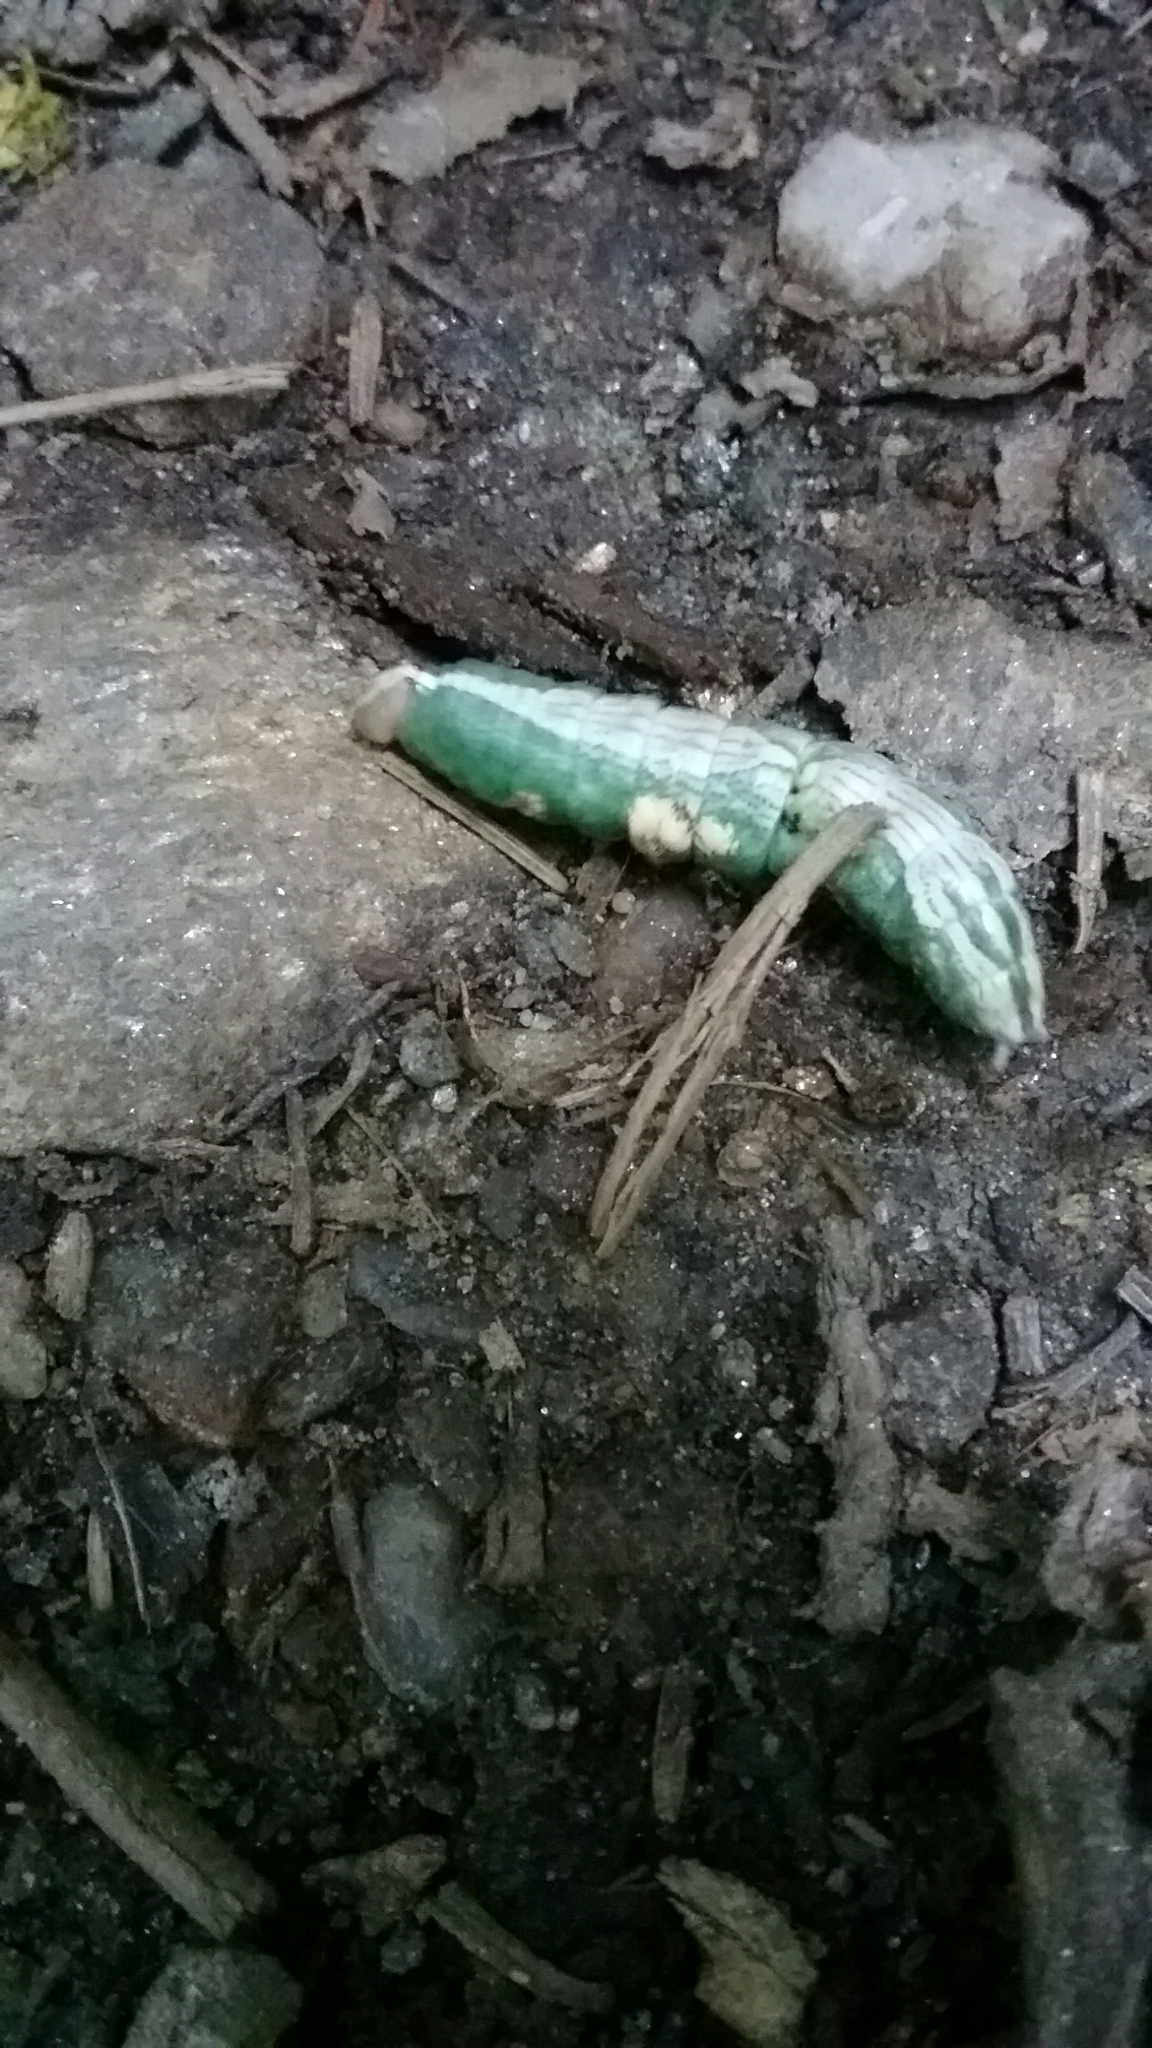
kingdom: Animalia
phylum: Arthropoda
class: Insecta
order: Lepidoptera
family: Notodontidae
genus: Disphragis
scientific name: Disphragis Cecrita biundata
